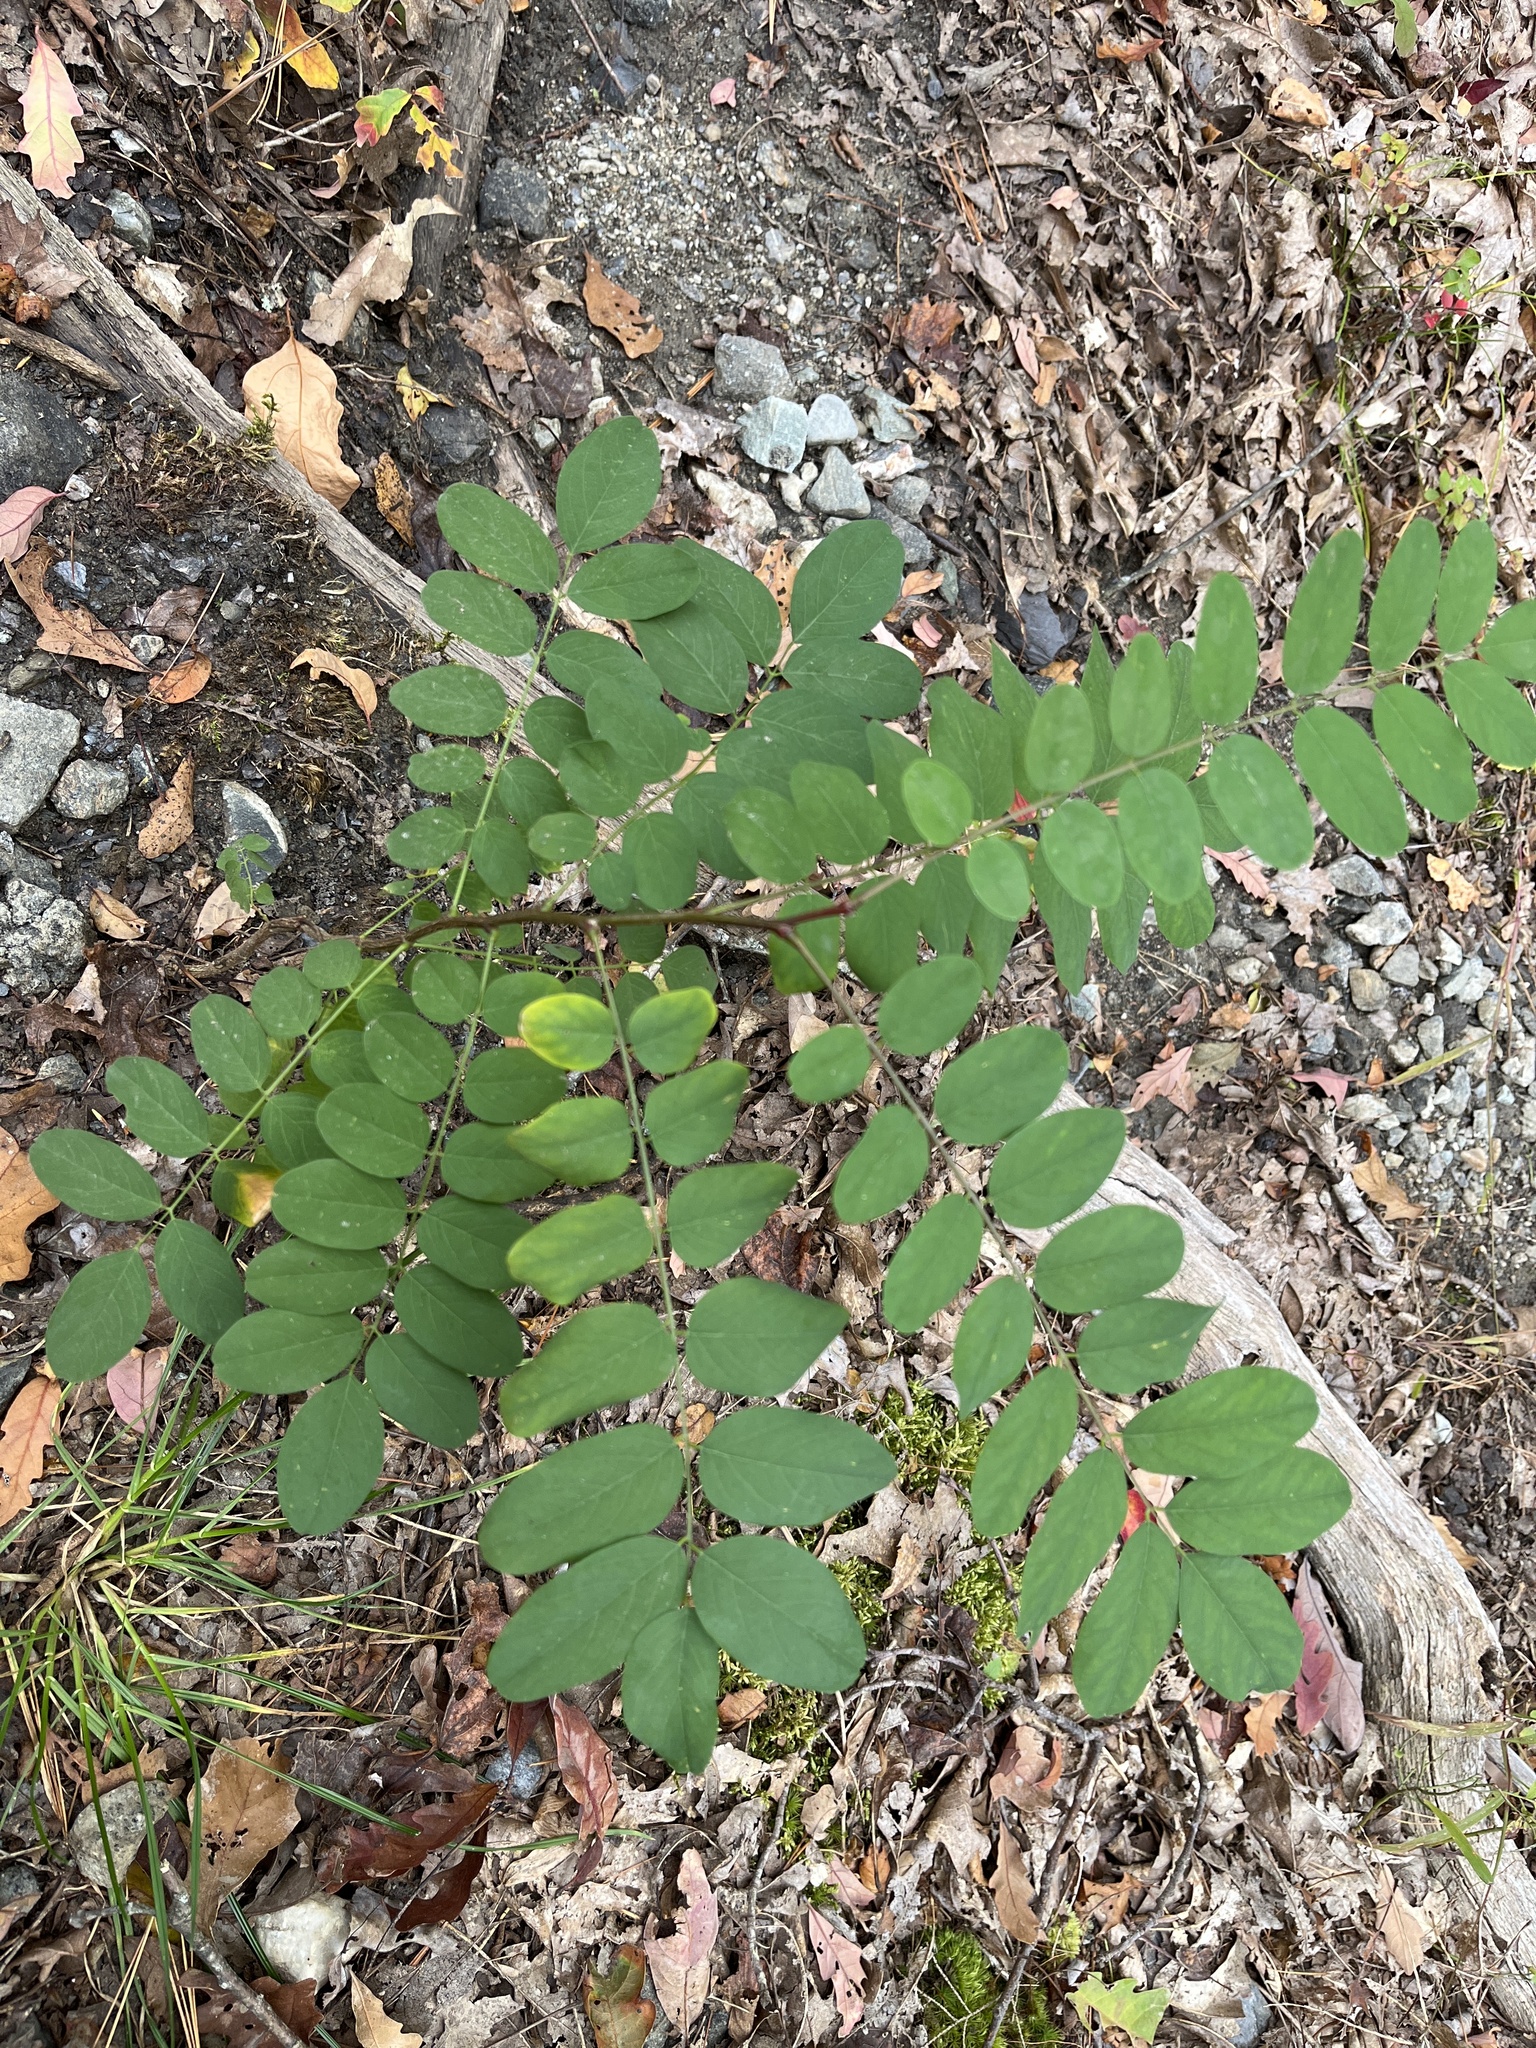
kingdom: Plantae
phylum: Tracheophyta
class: Magnoliopsida
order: Fabales
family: Fabaceae
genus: Robinia
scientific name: Robinia pseudoacacia
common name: Black locust
